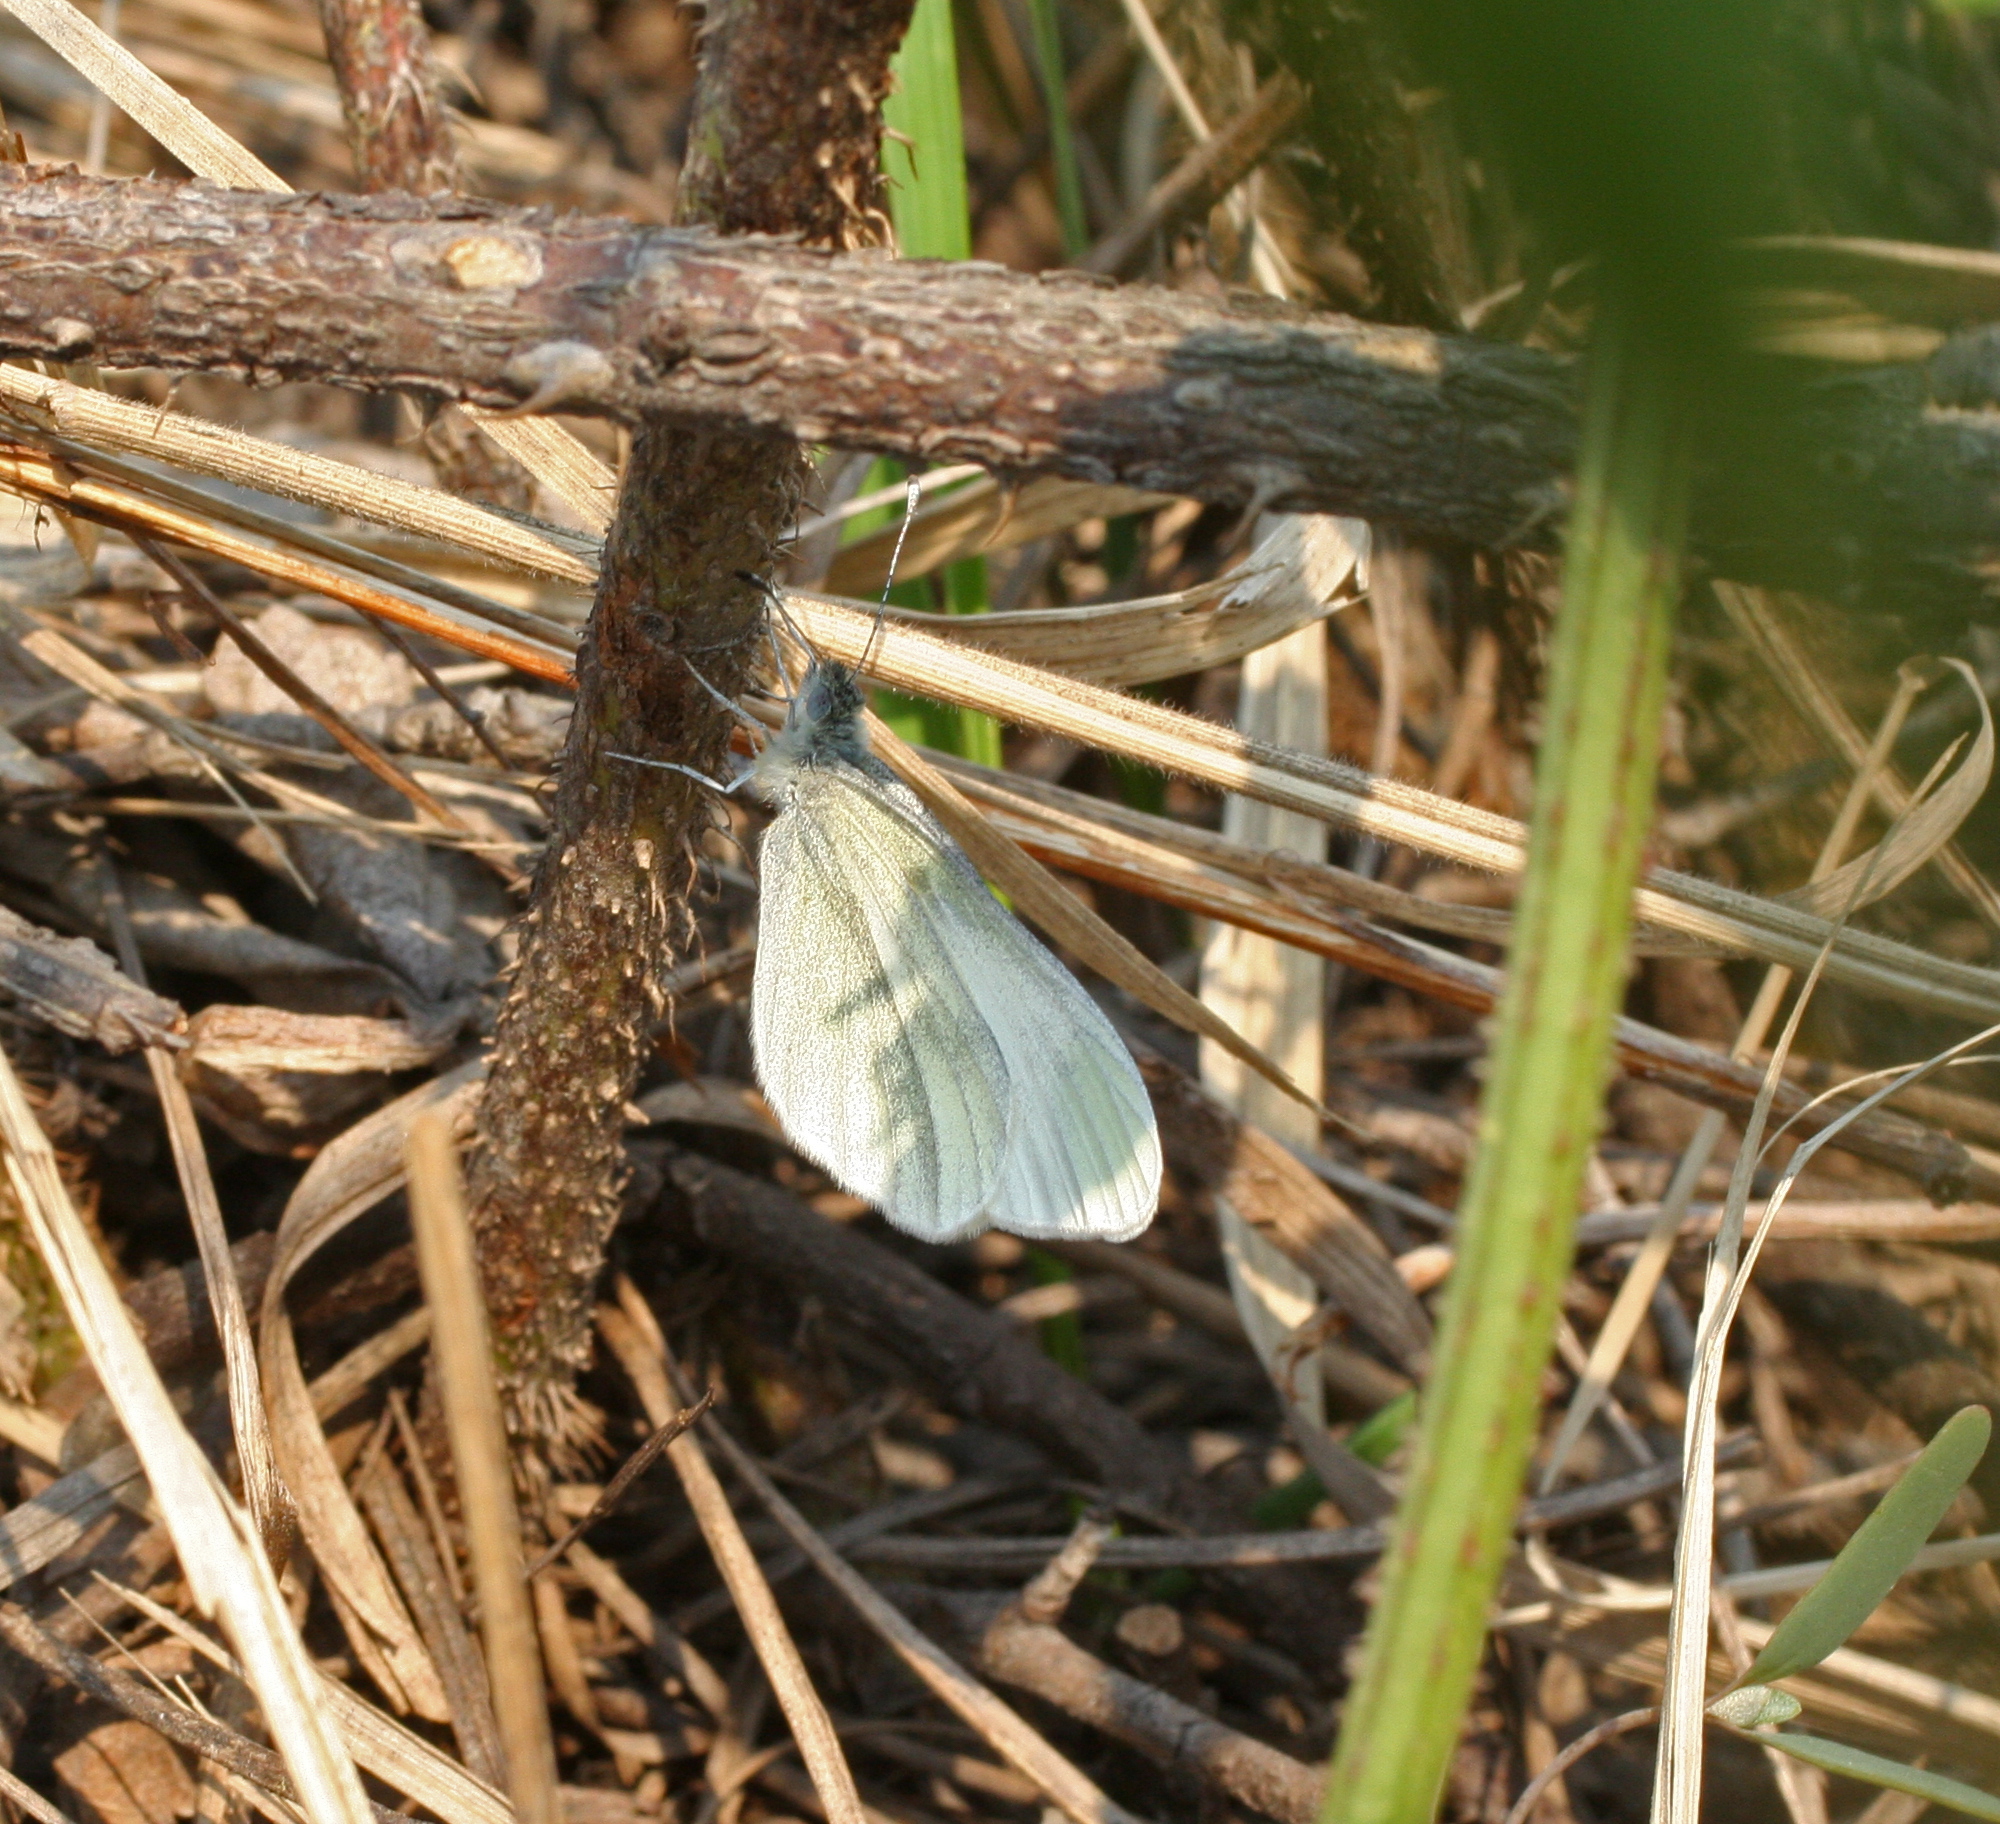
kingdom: Animalia
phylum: Arthropoda
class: Insecta
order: Lepidoptera
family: Pieridae
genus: Leptidea
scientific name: Leptidea amurensis
